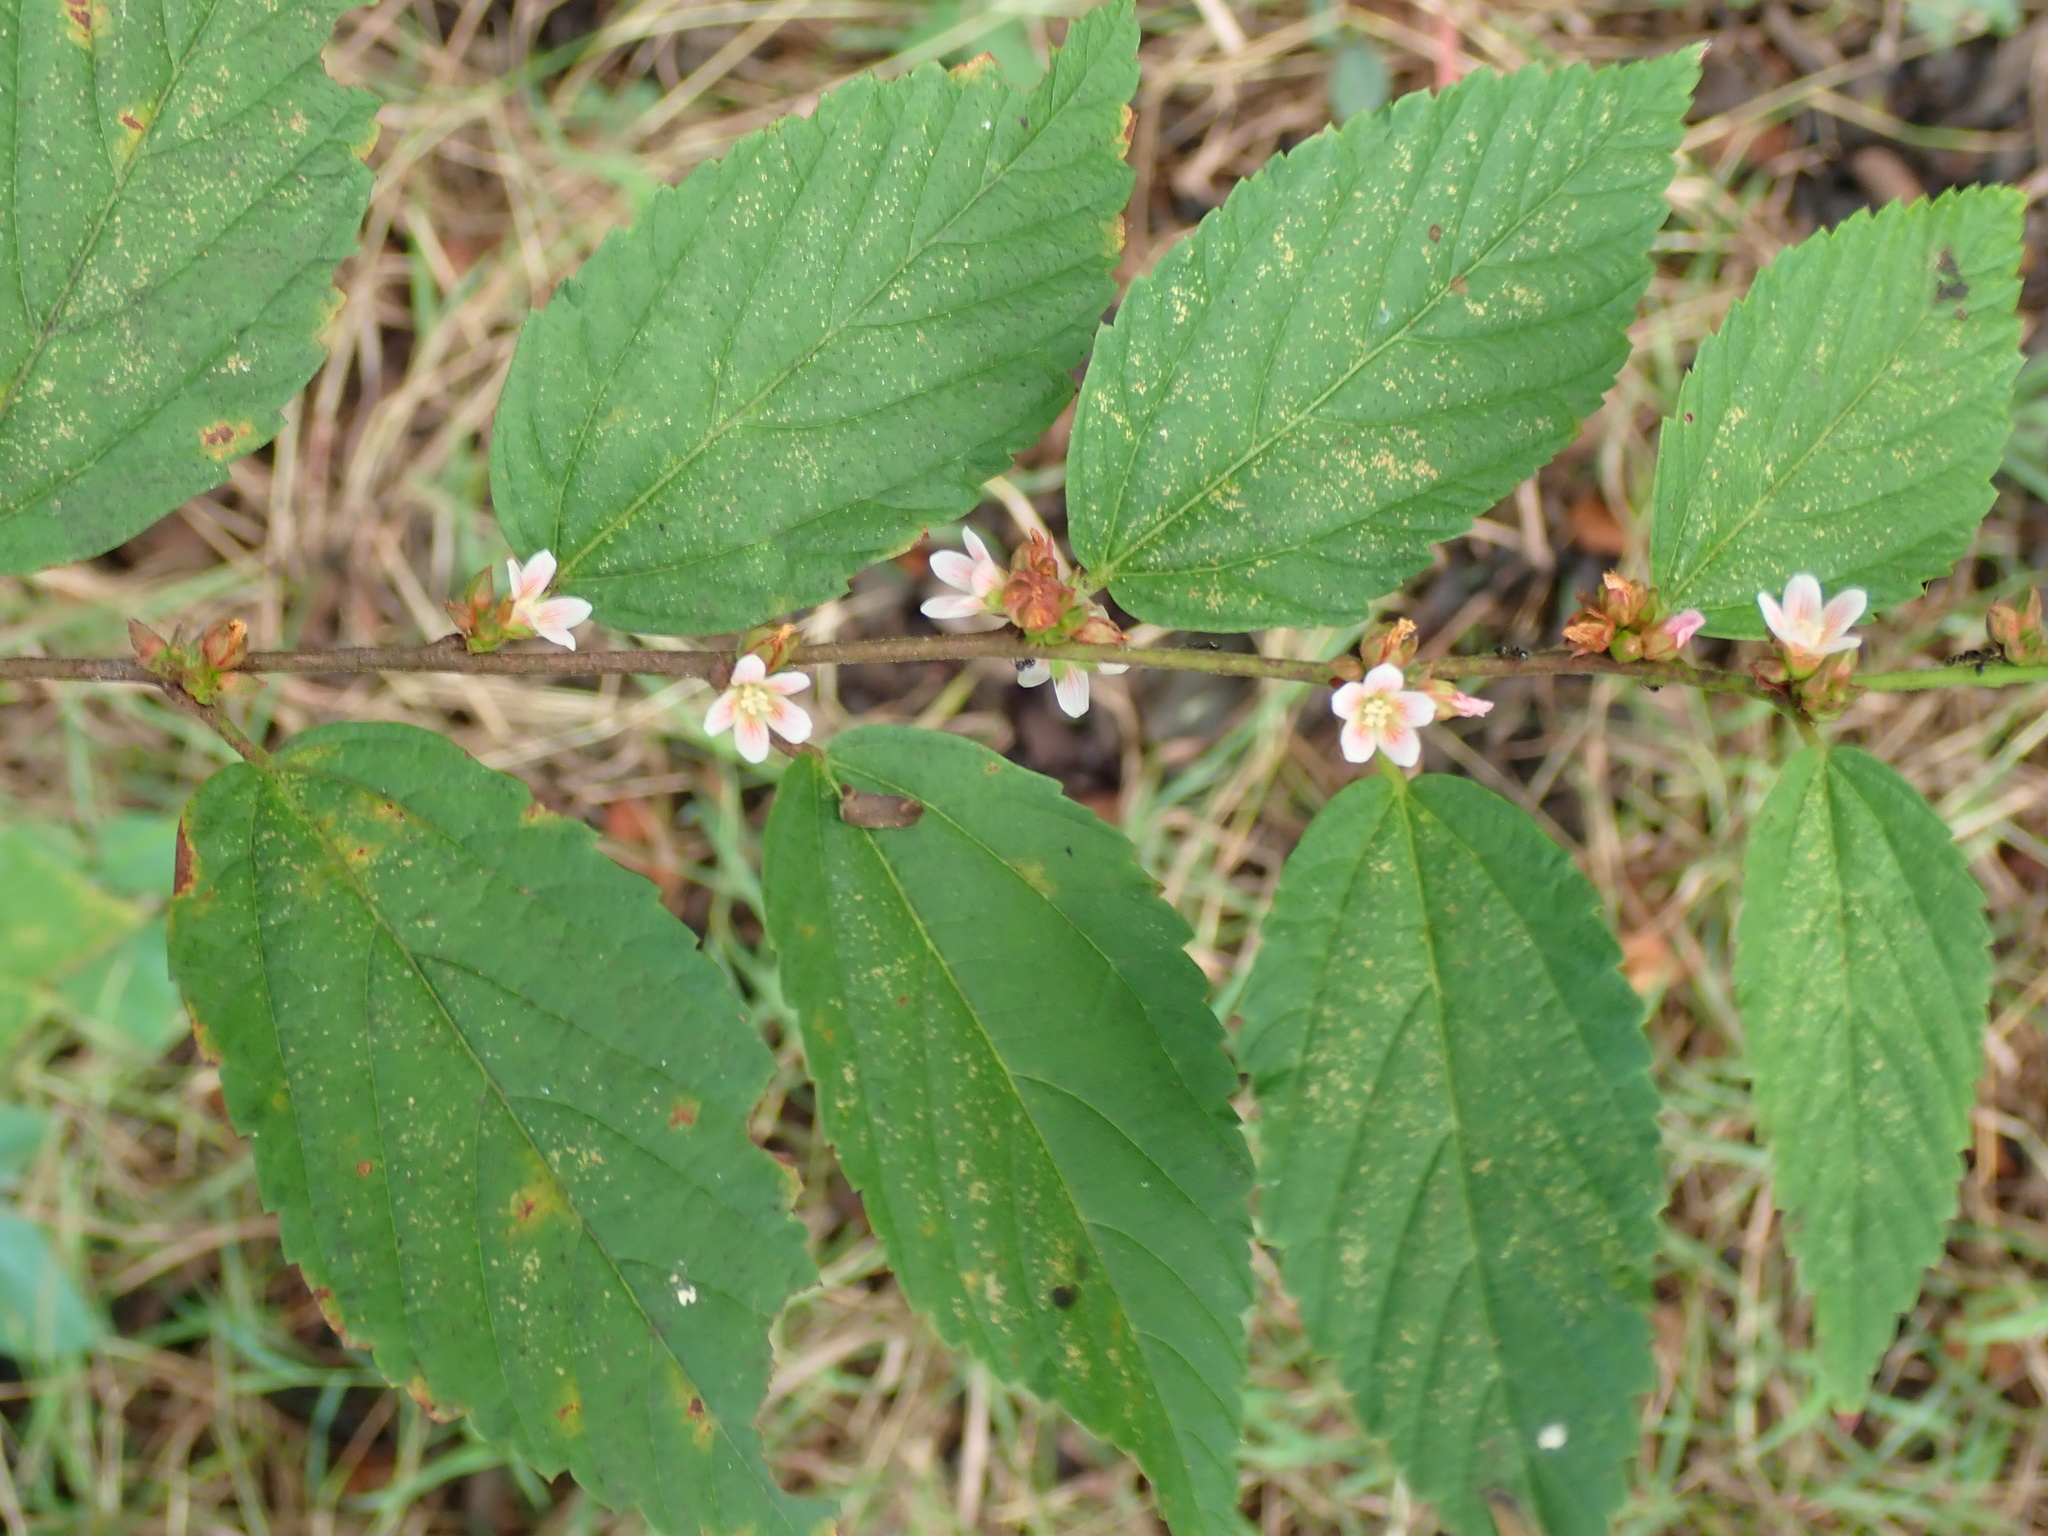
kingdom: Plantae
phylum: Tracheophyta
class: Magnoliopsida
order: Malvales
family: Malvaceae
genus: Melochia
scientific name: Melochia nodiflora
